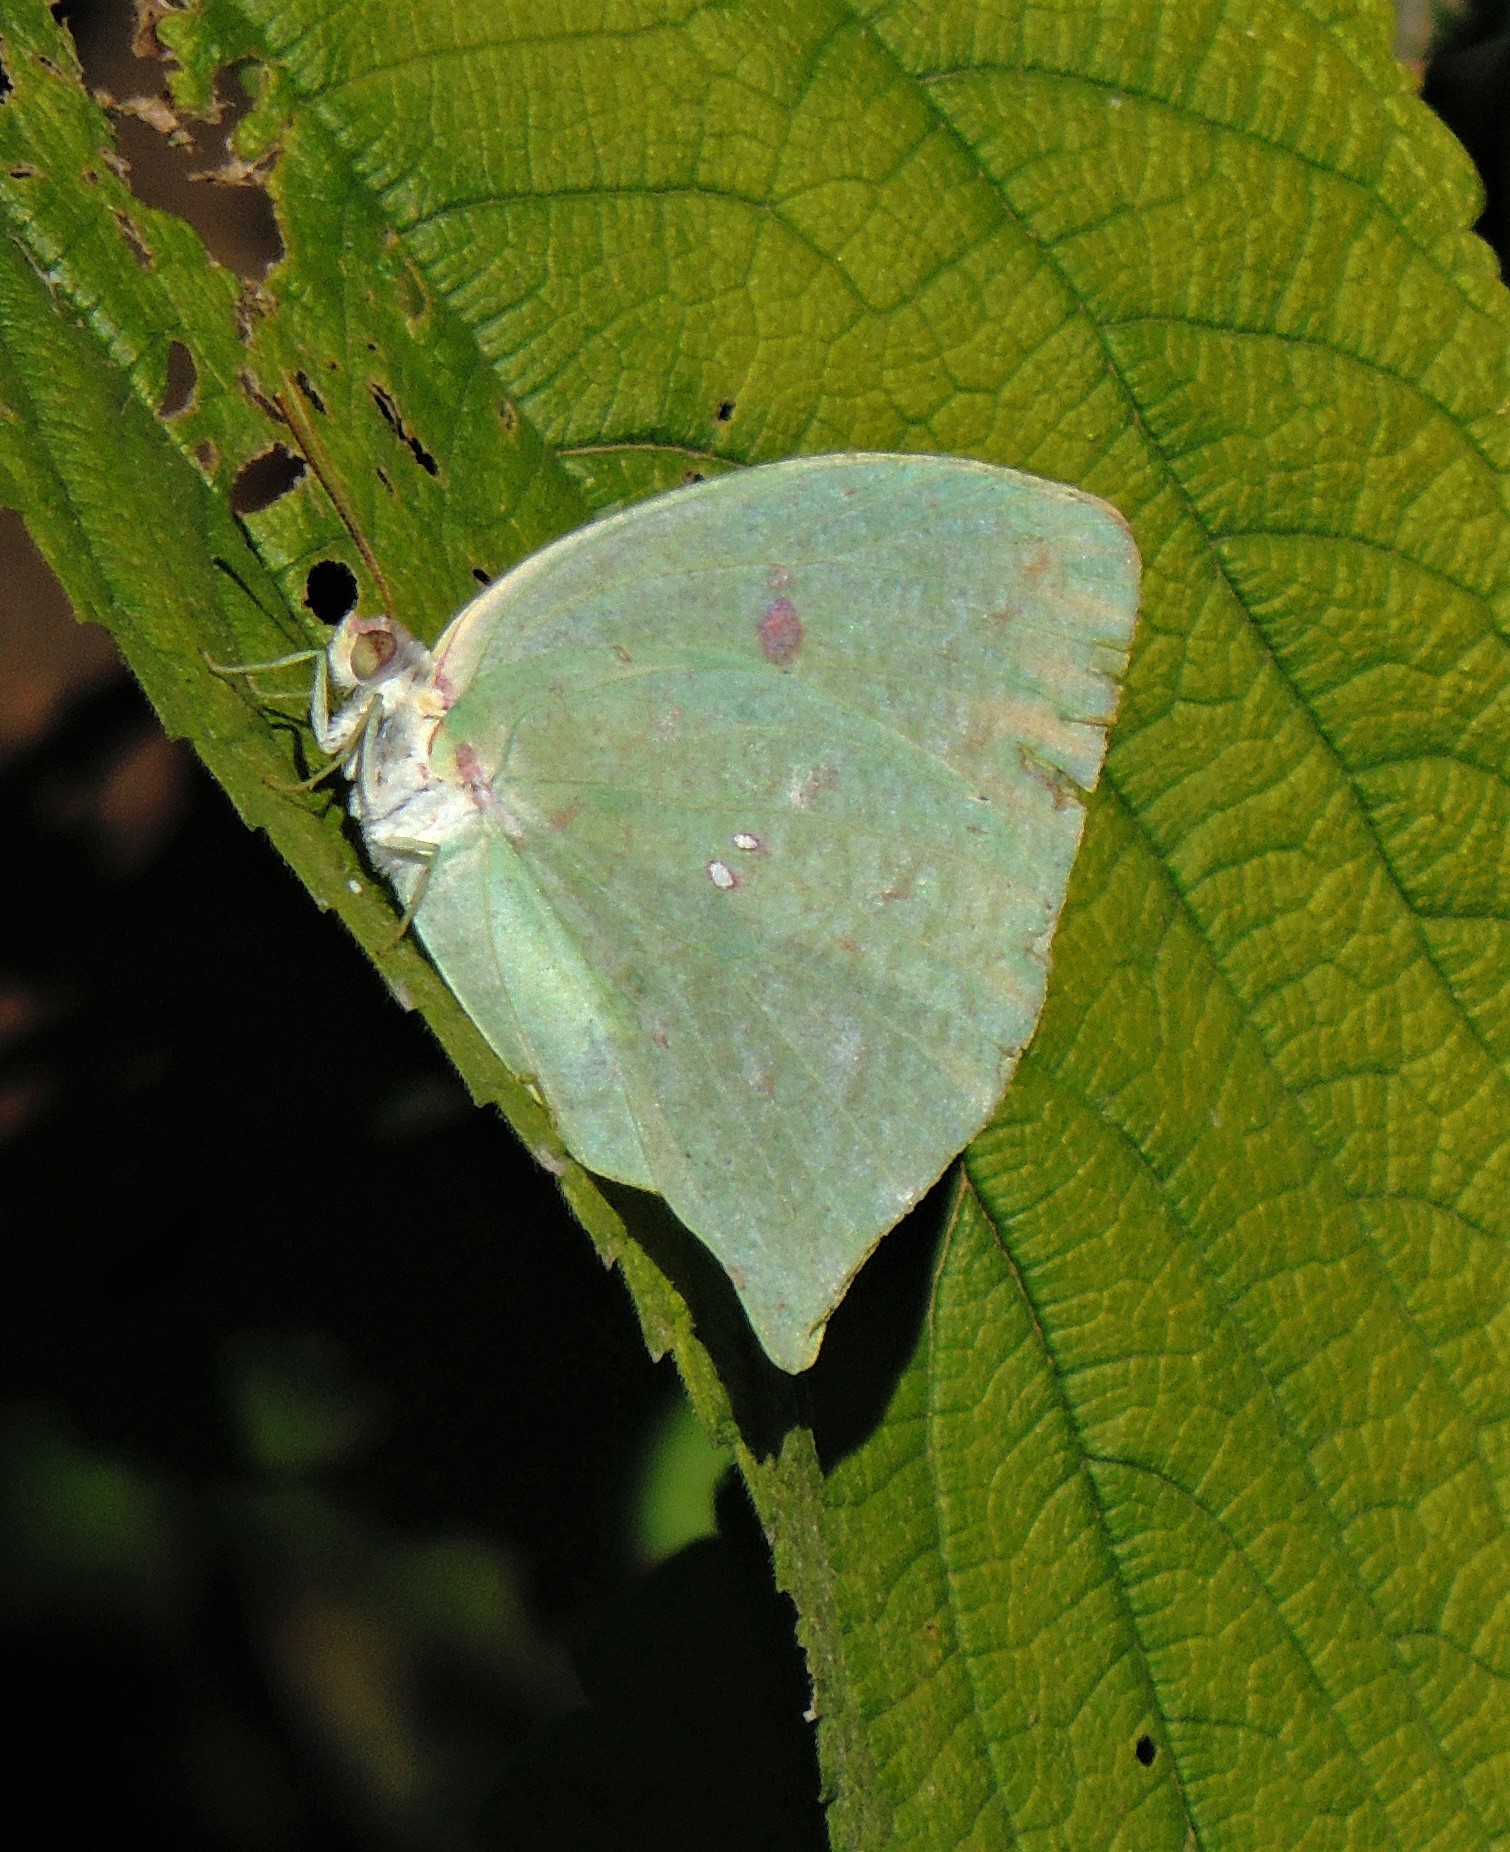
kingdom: Animalia
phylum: Arthropoda
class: Insecta
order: Lepidoptera
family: Pieridae
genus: Phoebis
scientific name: Phoebis neocypris
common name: Tailed sulphur
